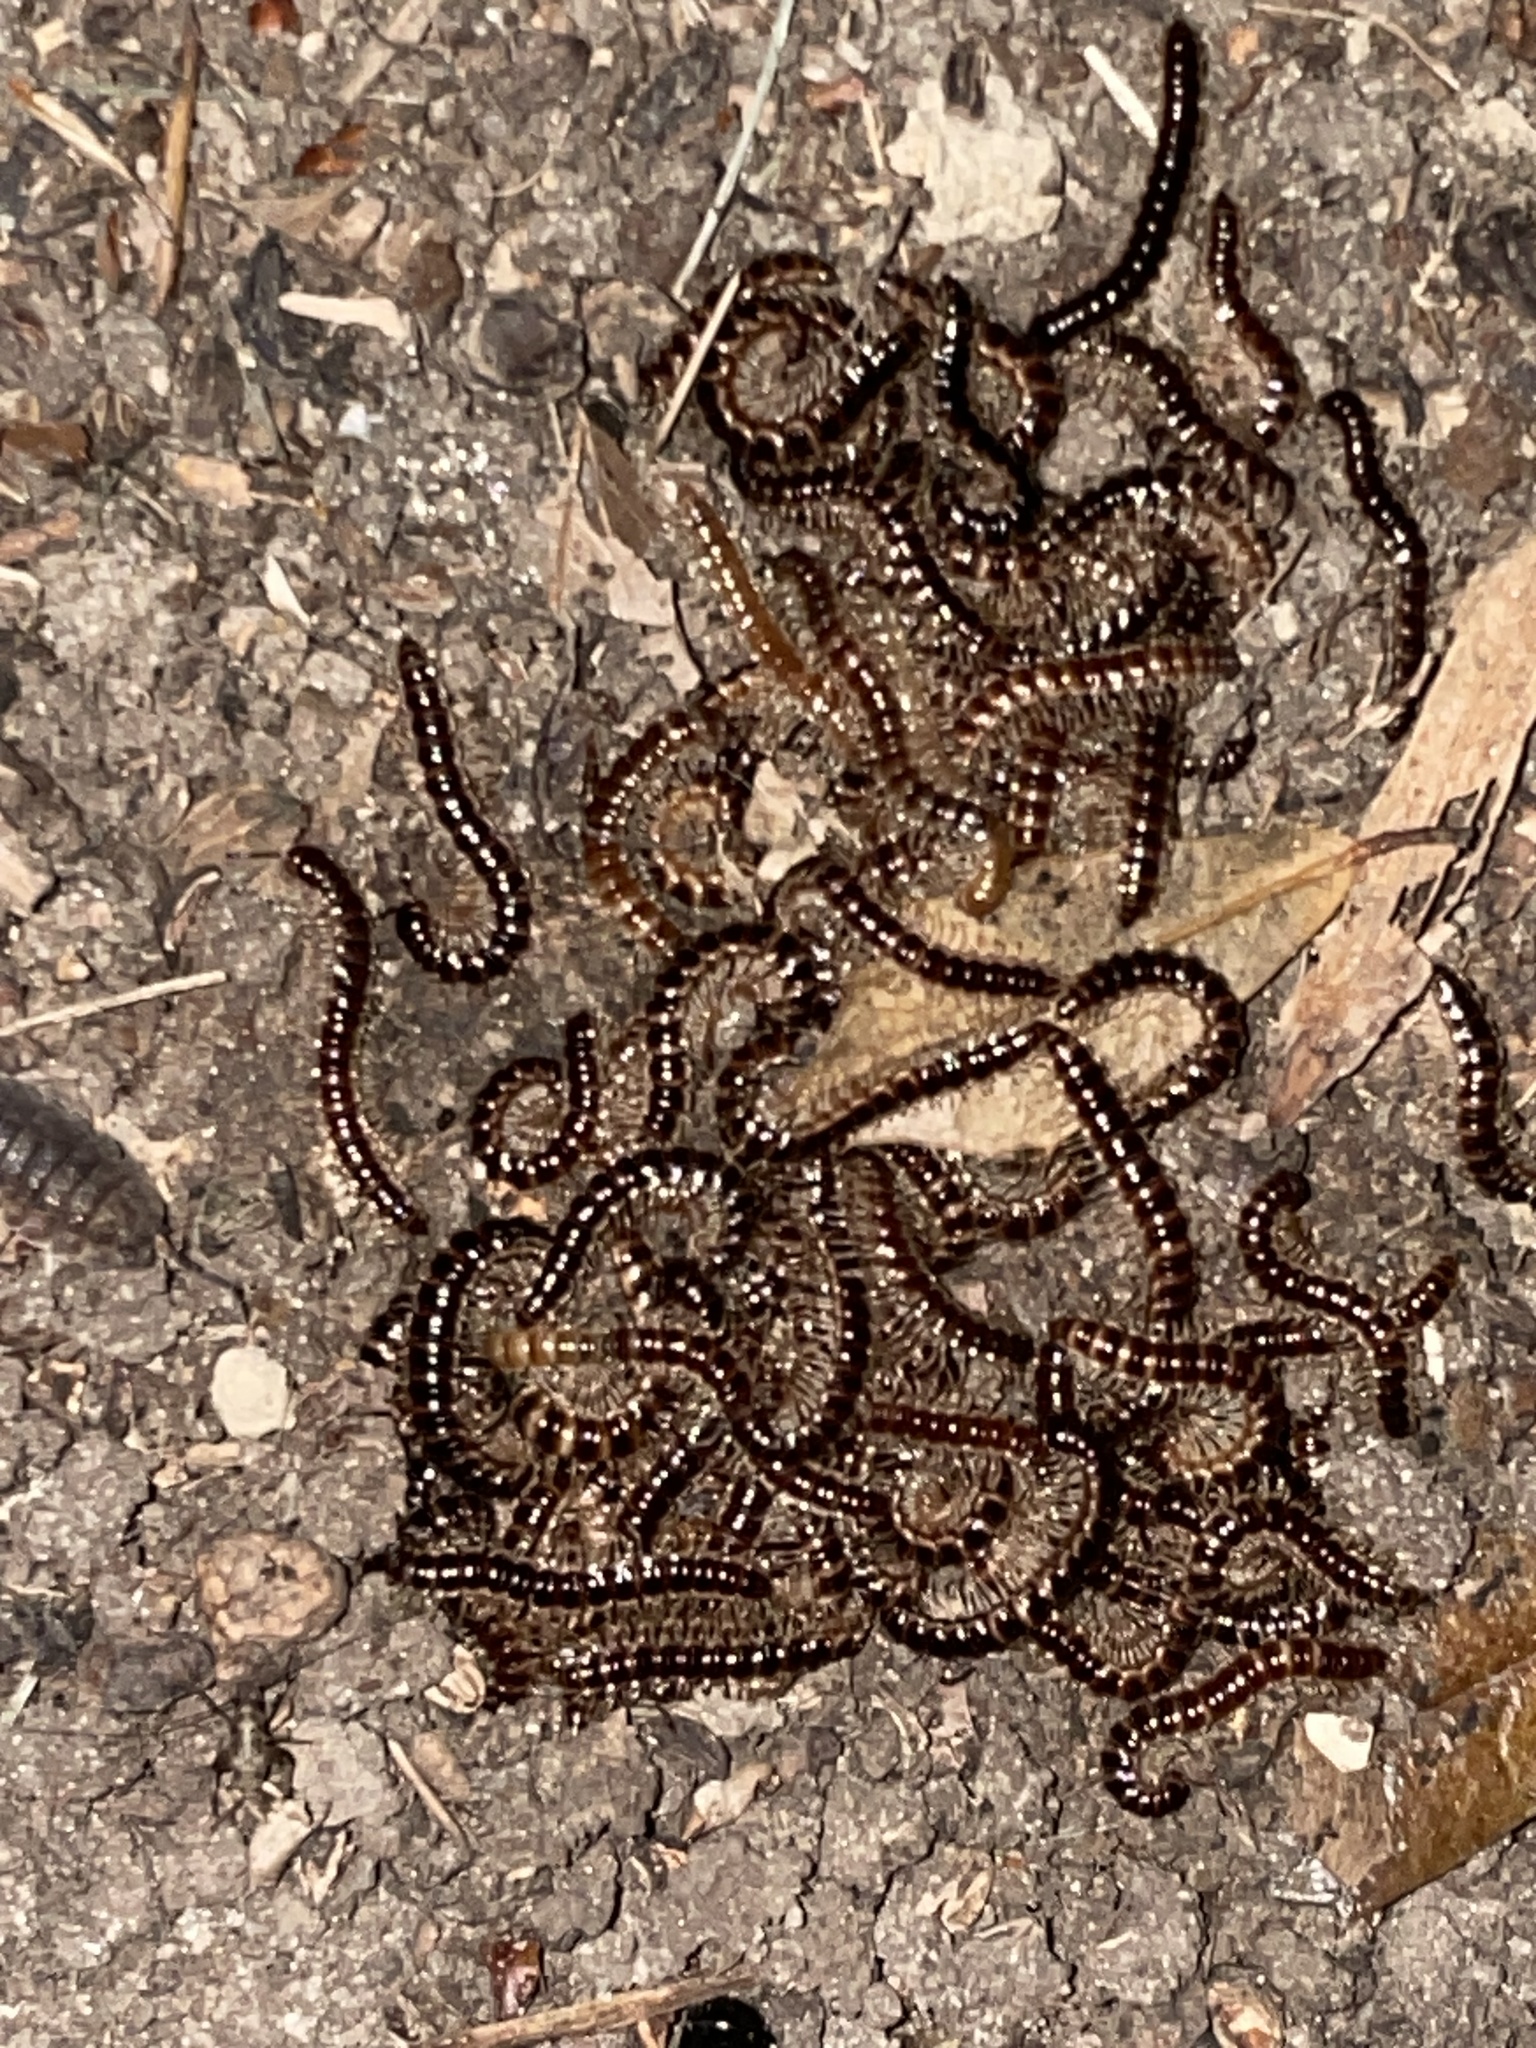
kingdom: Animalia
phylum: Arthropoda
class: Diplopoda
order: Polydesmida
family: Paradoxosomatidae
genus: Oxidus
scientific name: Oxidus gracilis
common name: Greenhouse millipede
